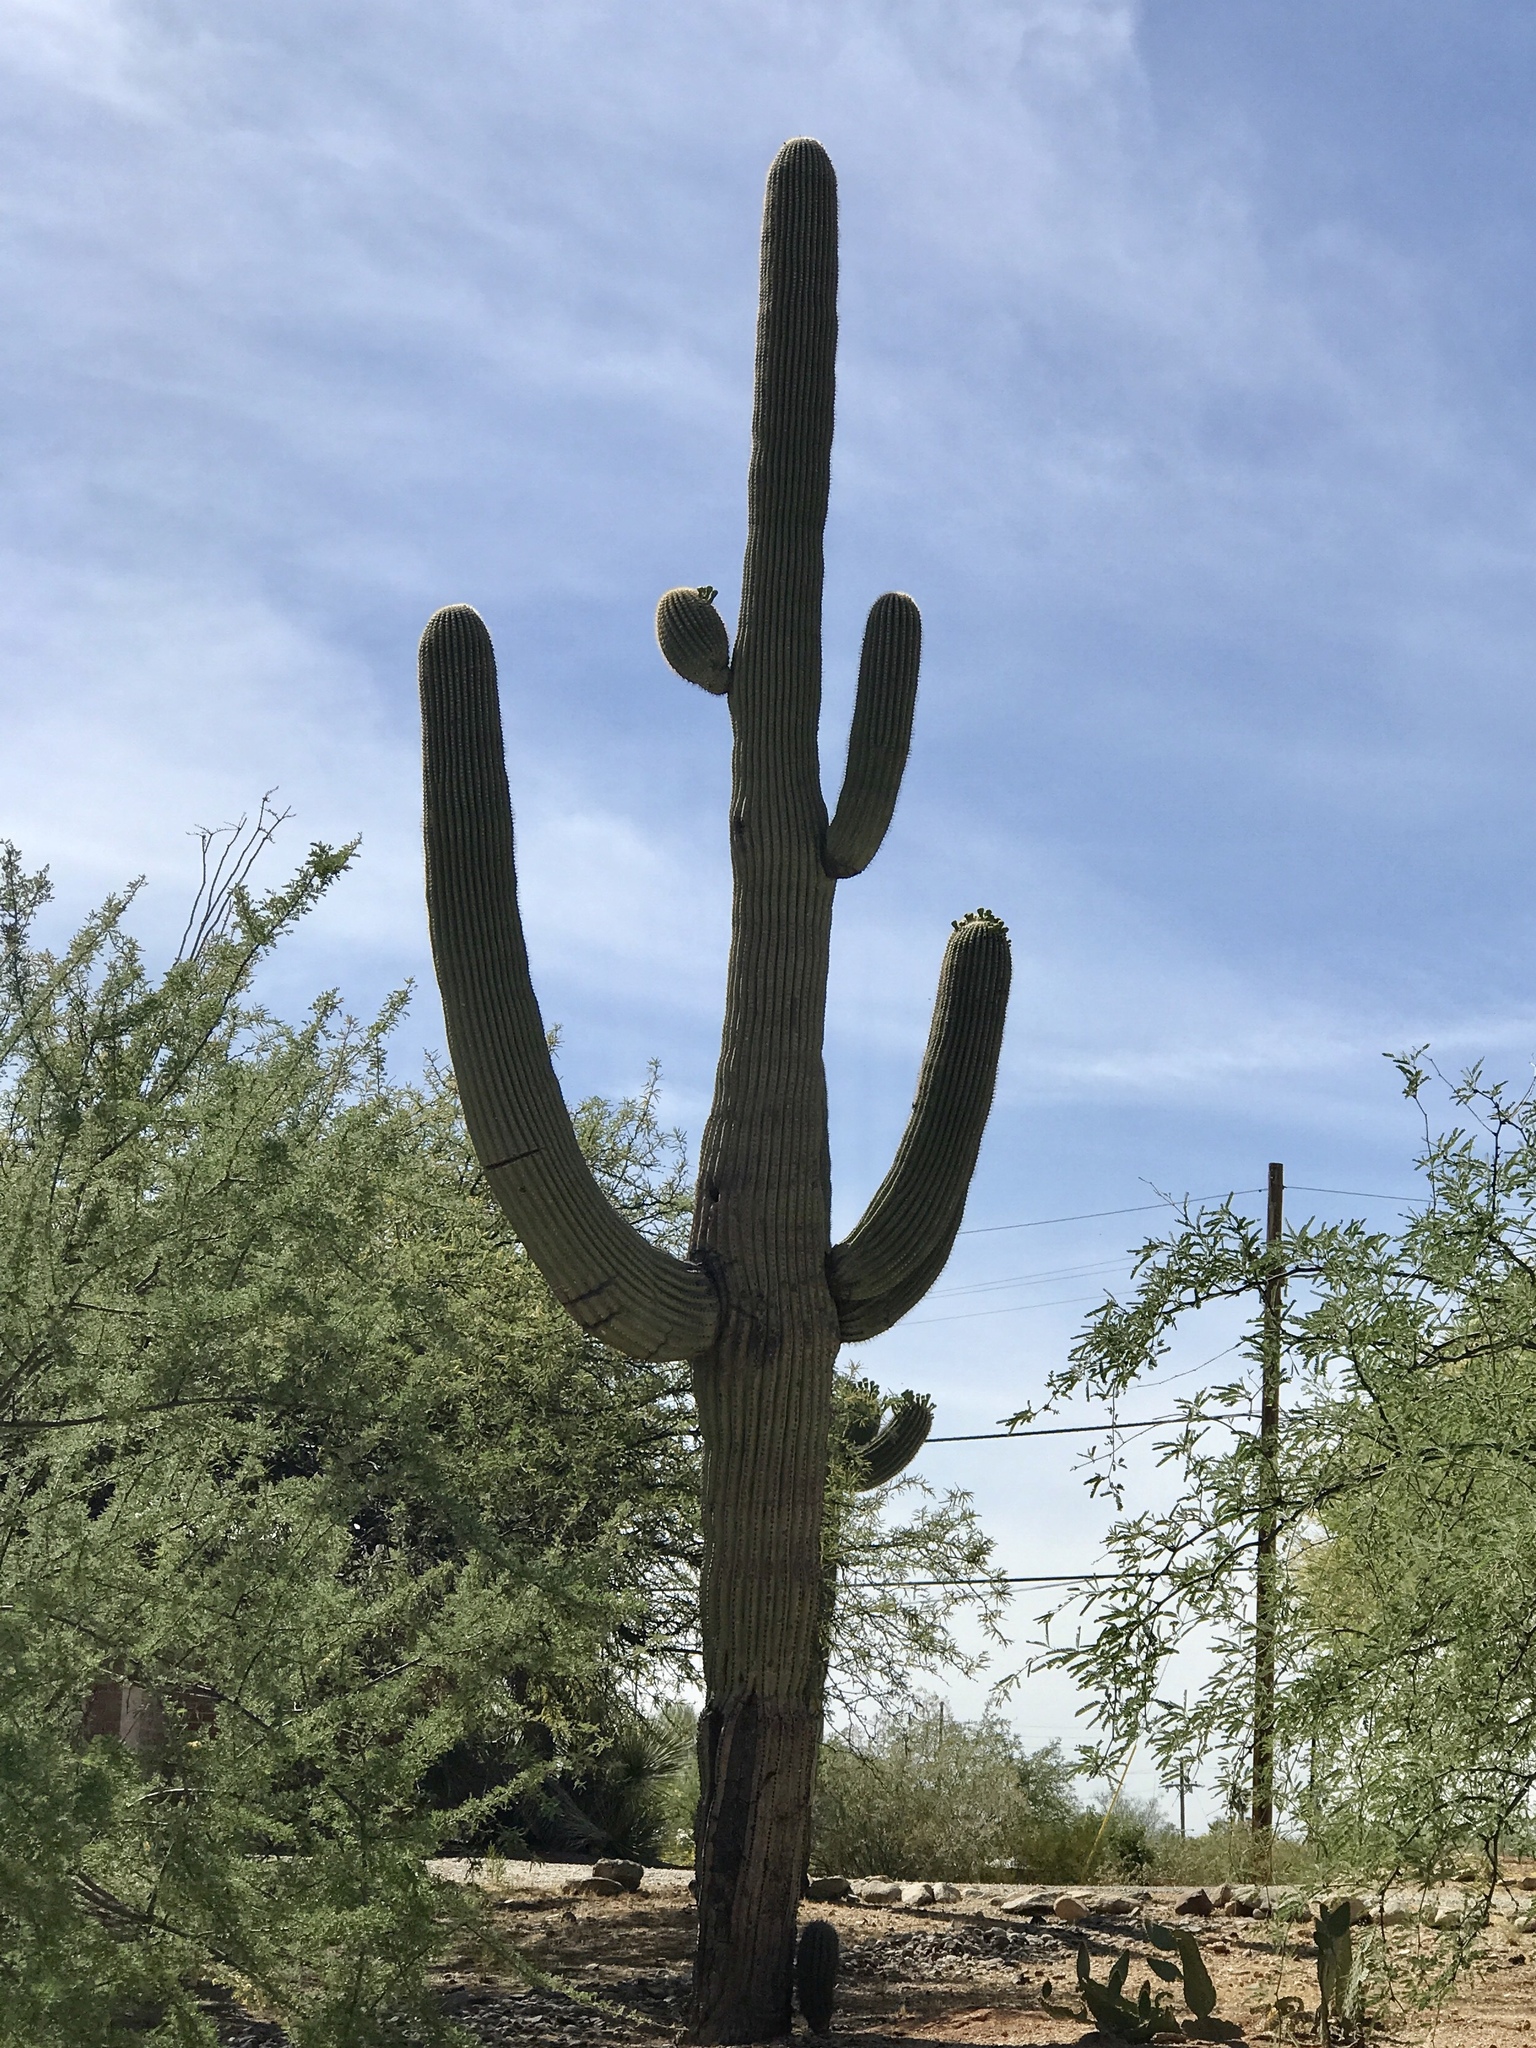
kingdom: Plantae
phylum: Tracheophyta
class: Magnoliopsida
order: Caryophyllales
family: Cactaceae
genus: Carnegiea
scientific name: Carnegiea gigantea
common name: Saguaro
